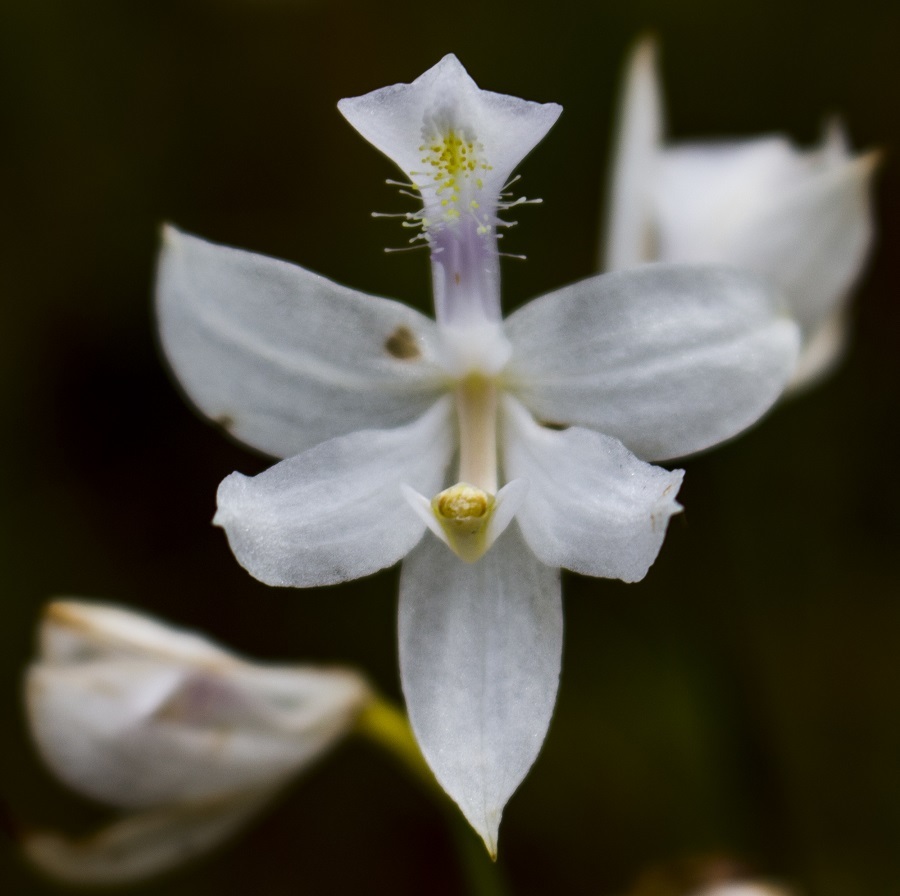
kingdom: Plantae
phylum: Tracheophyta
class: Liliopsida
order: Asparagales
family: Orchidaceae
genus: Calopogon
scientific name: Calopogon tuberosus
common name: Grass-pink
